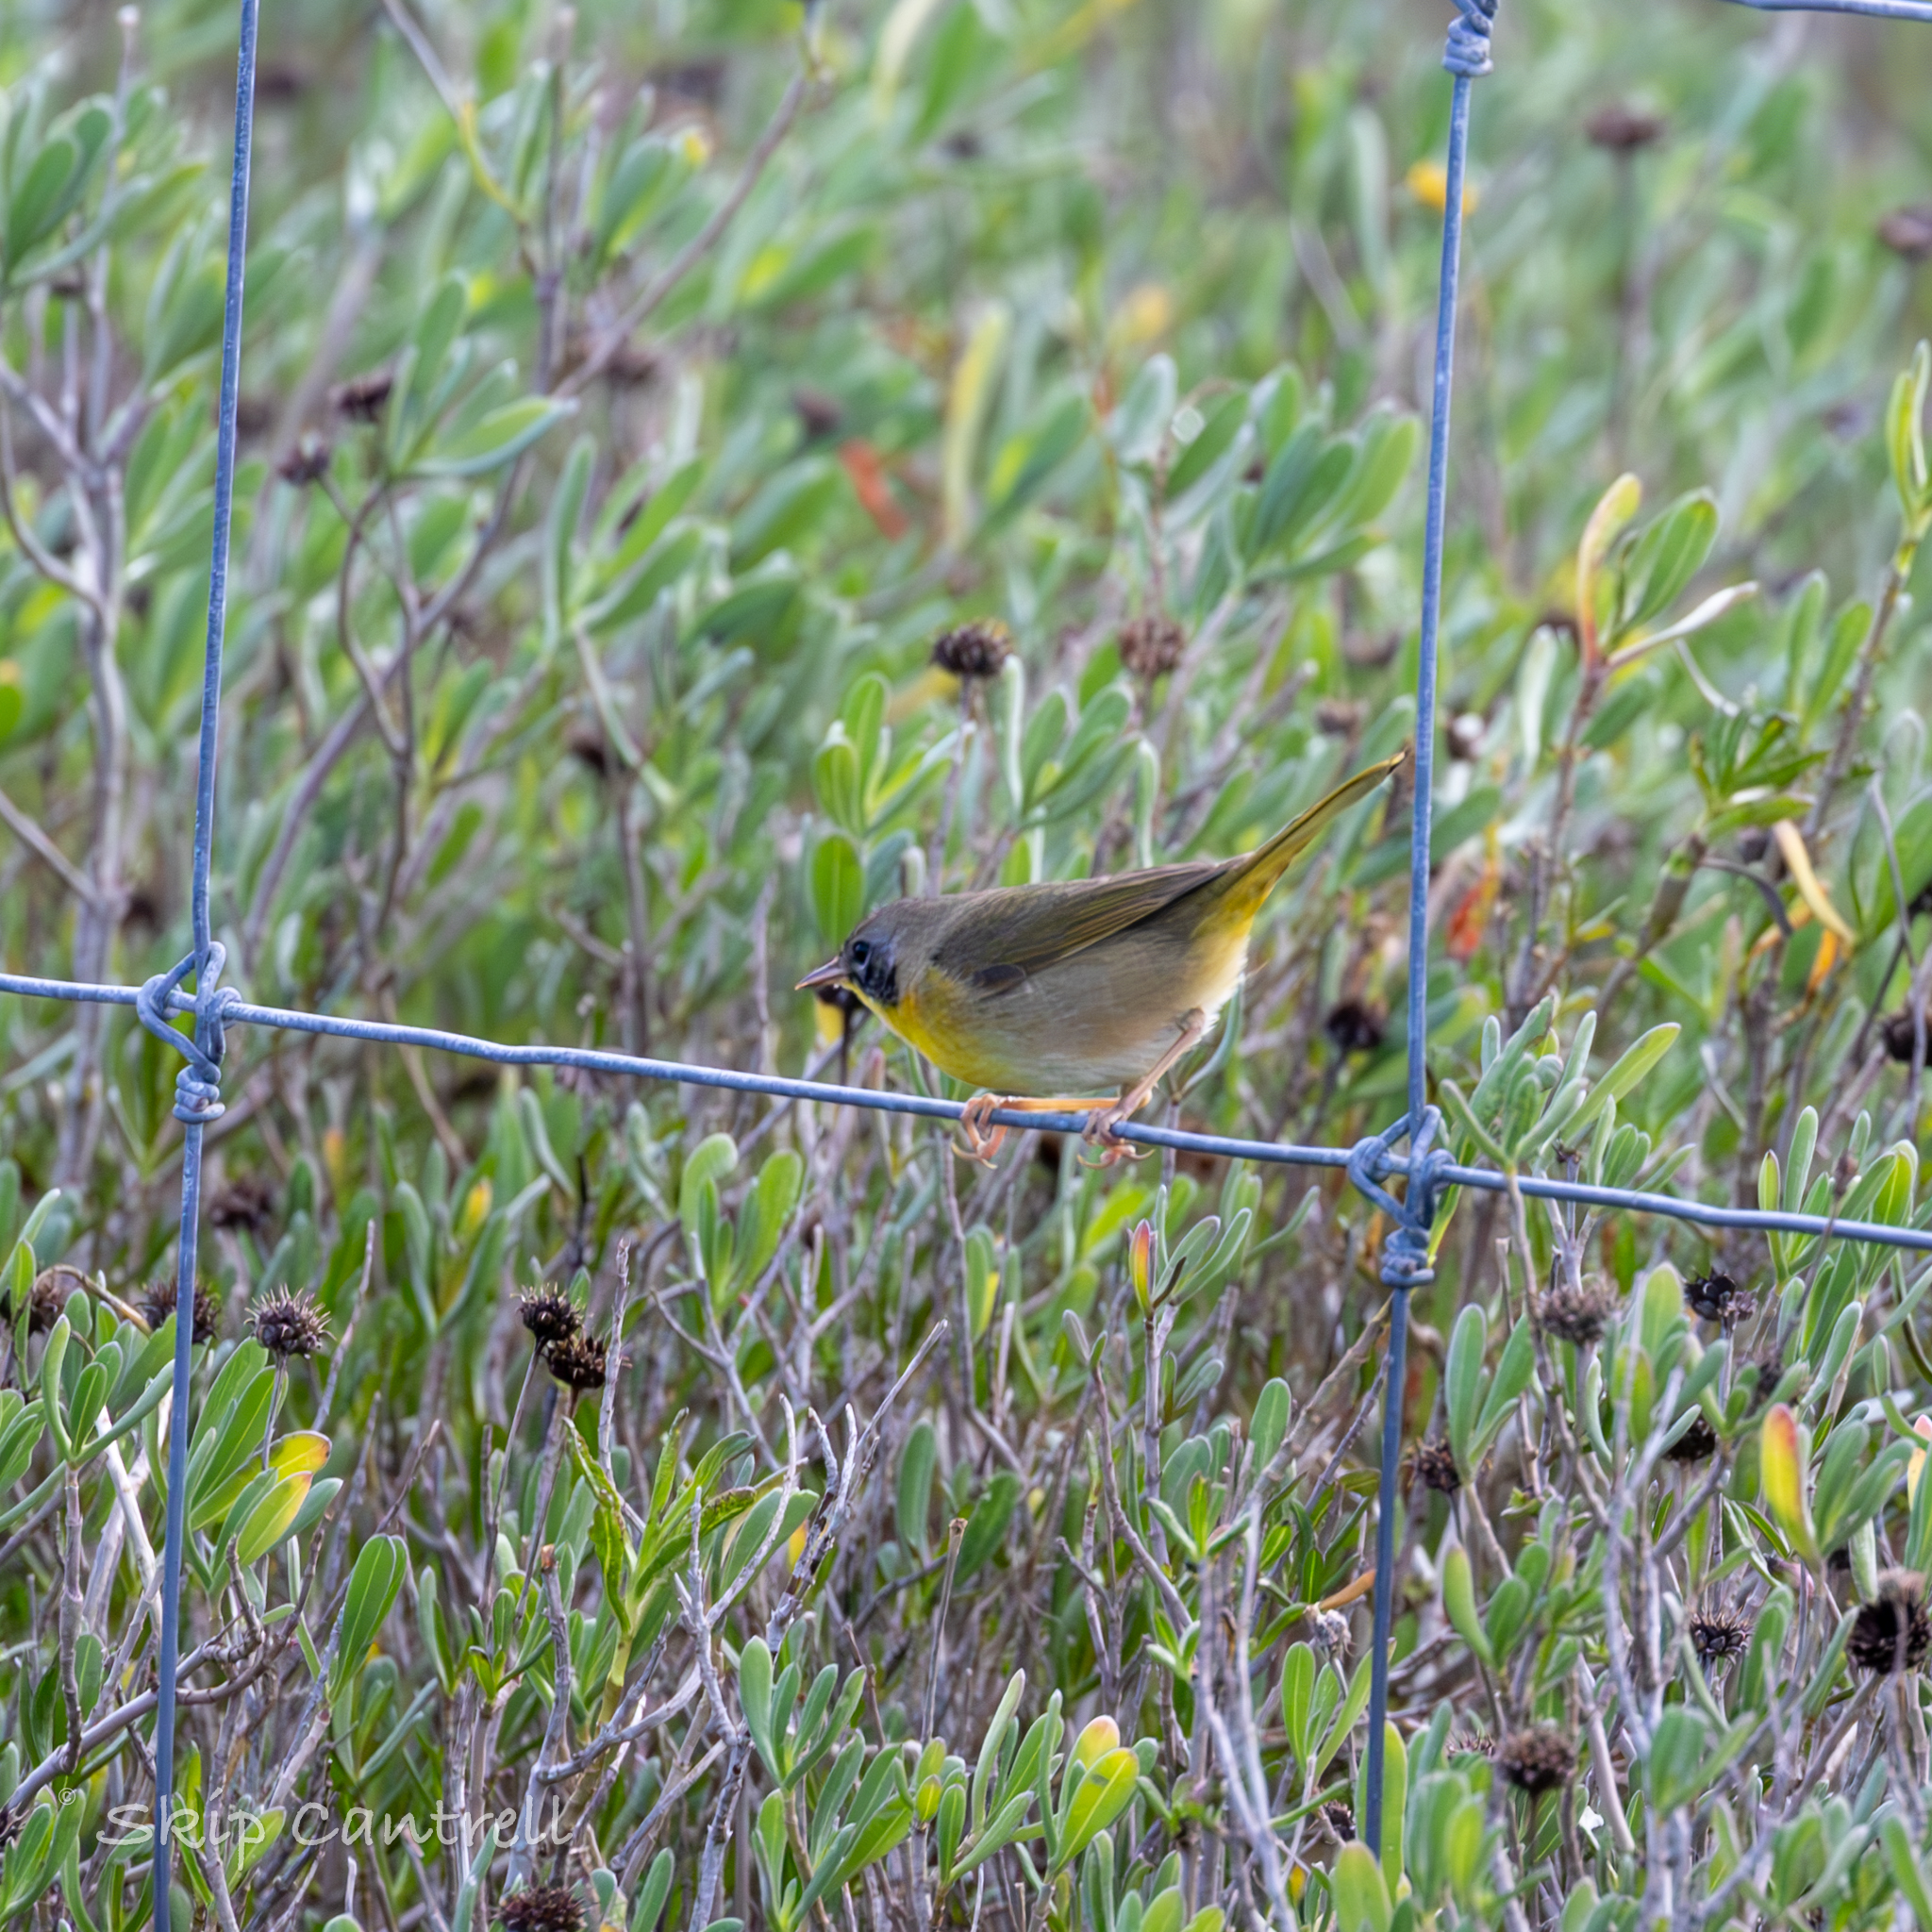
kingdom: Animalia
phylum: Chordata
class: Aves
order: Passeriformes
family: Parulidae
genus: Geothlypis
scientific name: Geothlypis trichas
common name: Common yellowthroat
